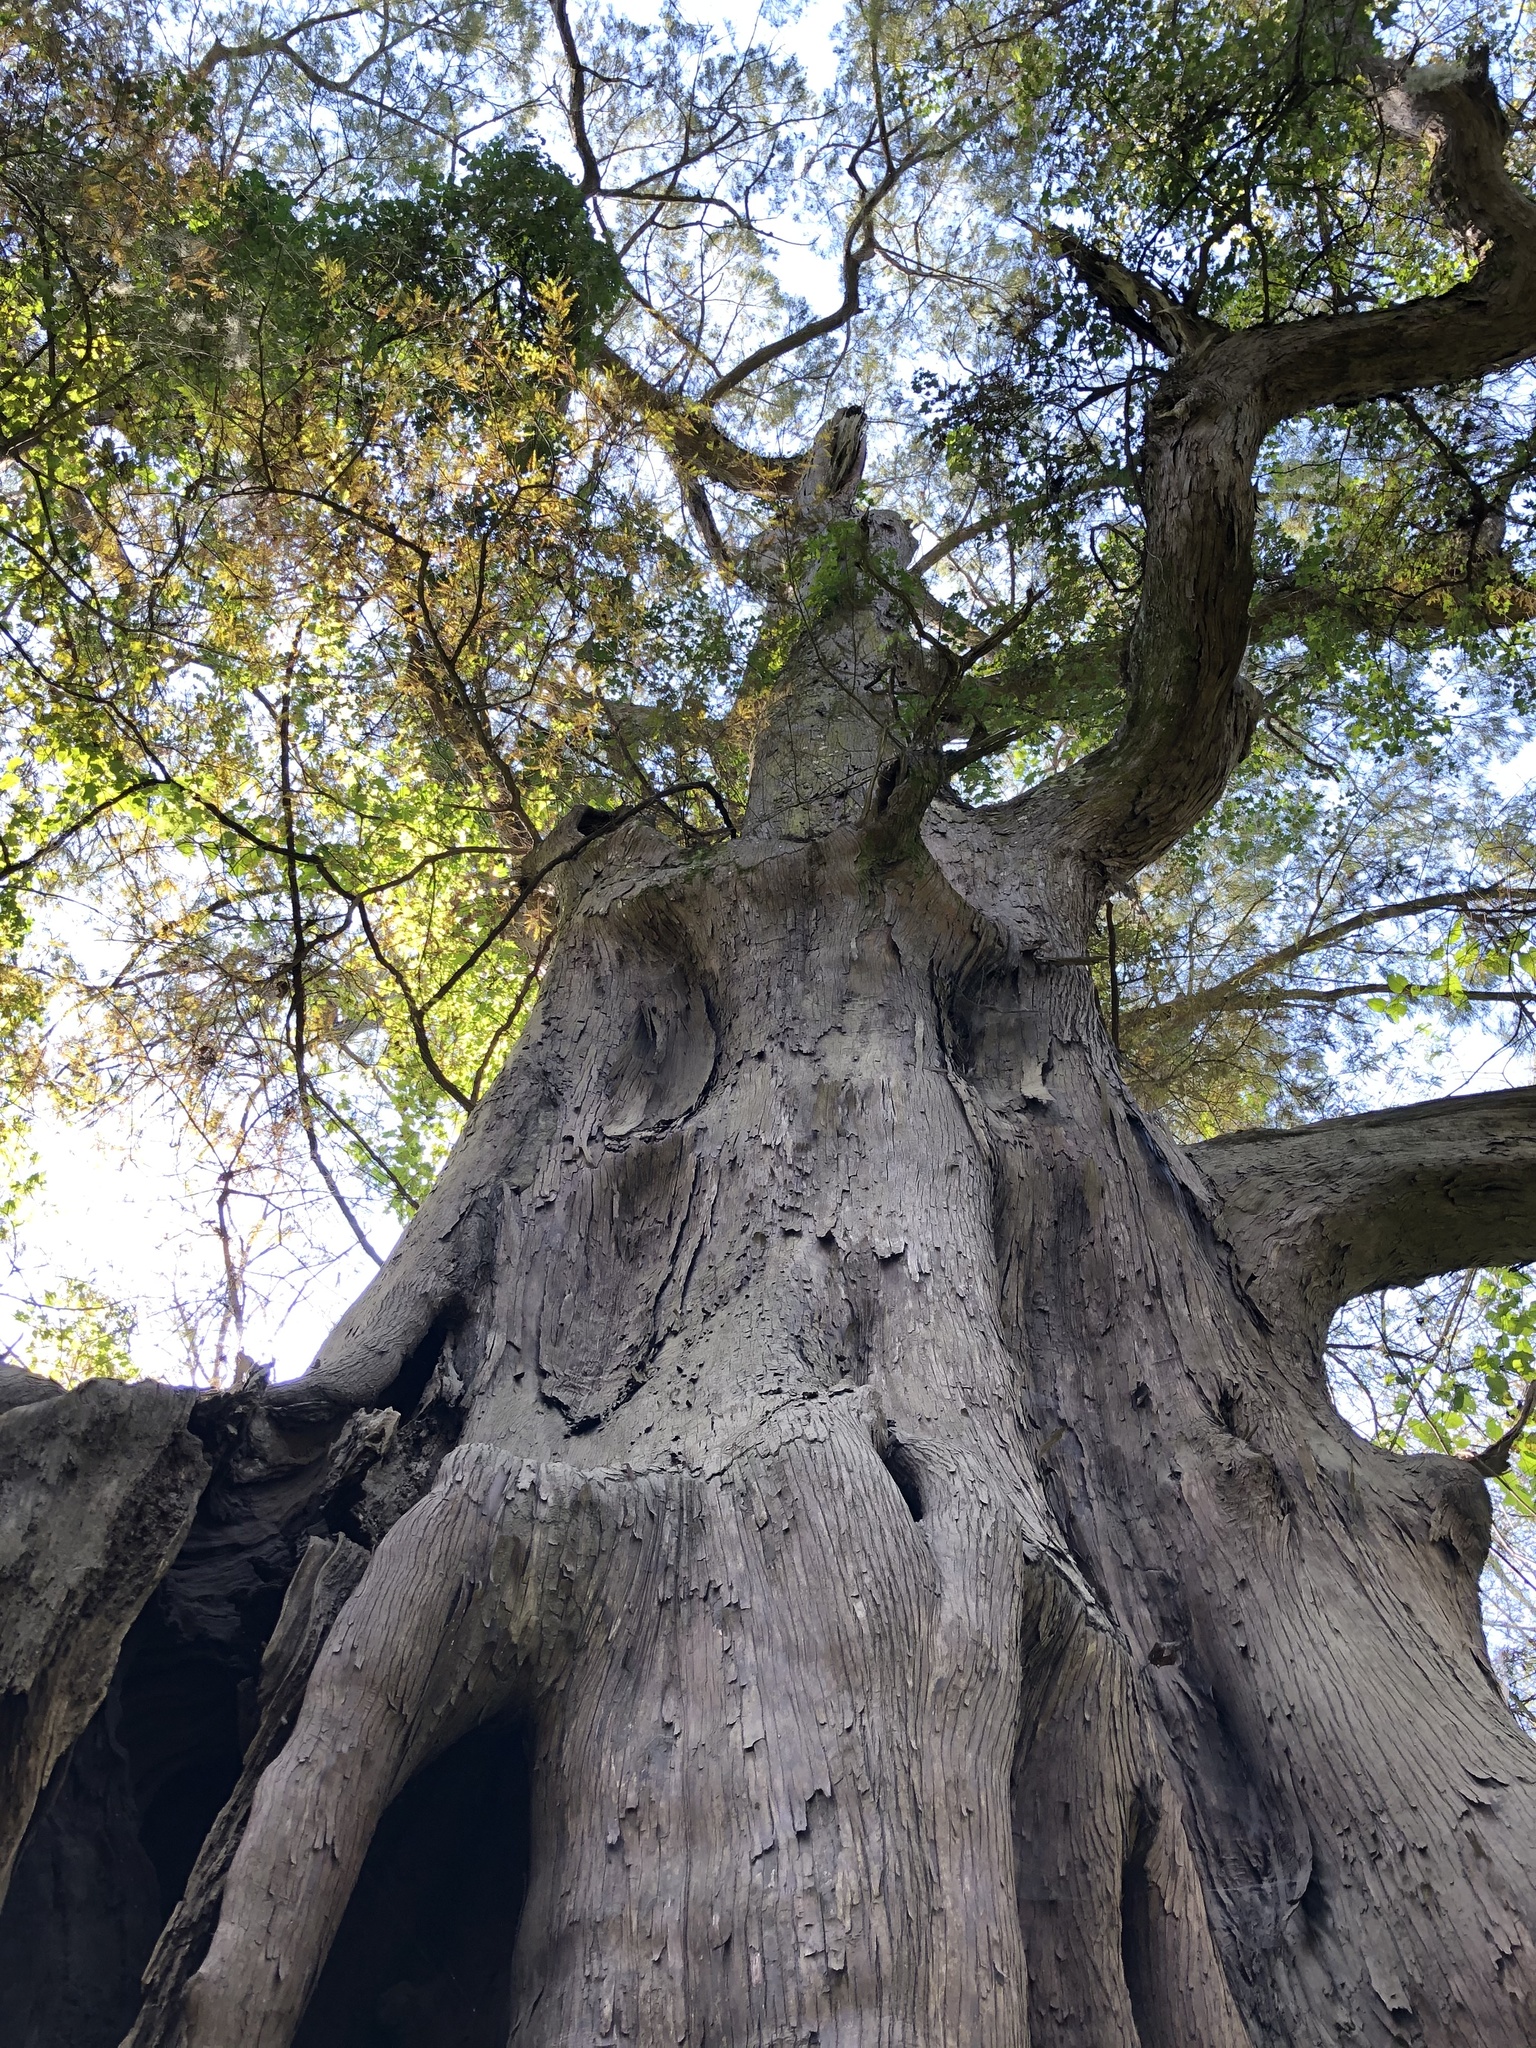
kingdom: Plantae
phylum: Tracheophyta
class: Pinopsida
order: Pinales
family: Cupressaceae
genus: Taxodium
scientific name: Taxodium distichum
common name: Bald cypress
